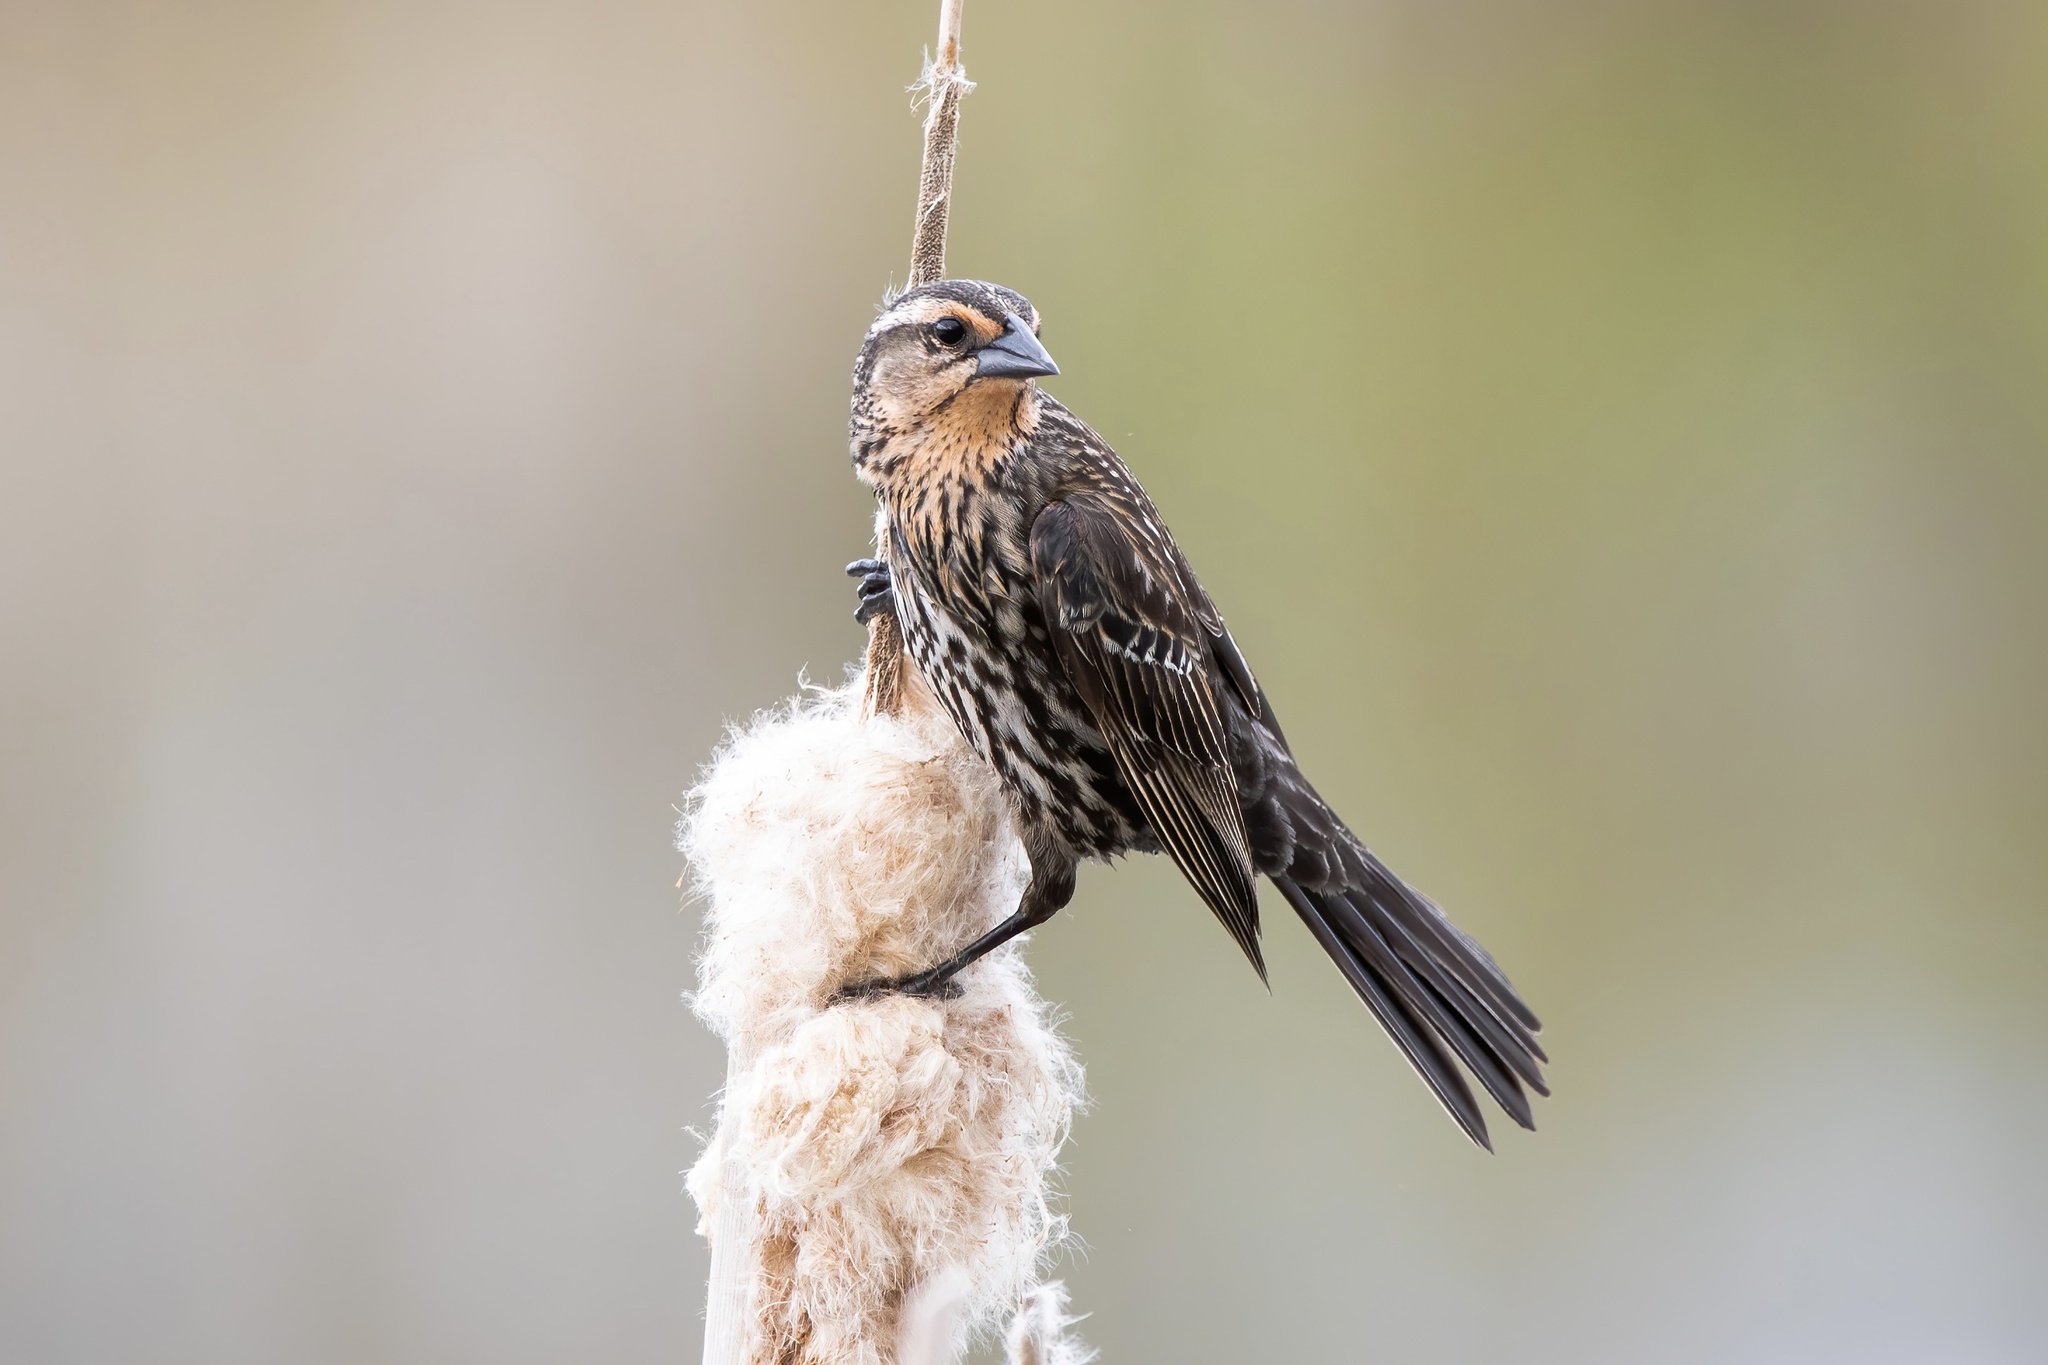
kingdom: Animalia
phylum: Chordata
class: Aves
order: Passeriformes
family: Icteridae
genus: Agelaius
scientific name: Agelaius phoeniceus
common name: Red-winged blackbird
